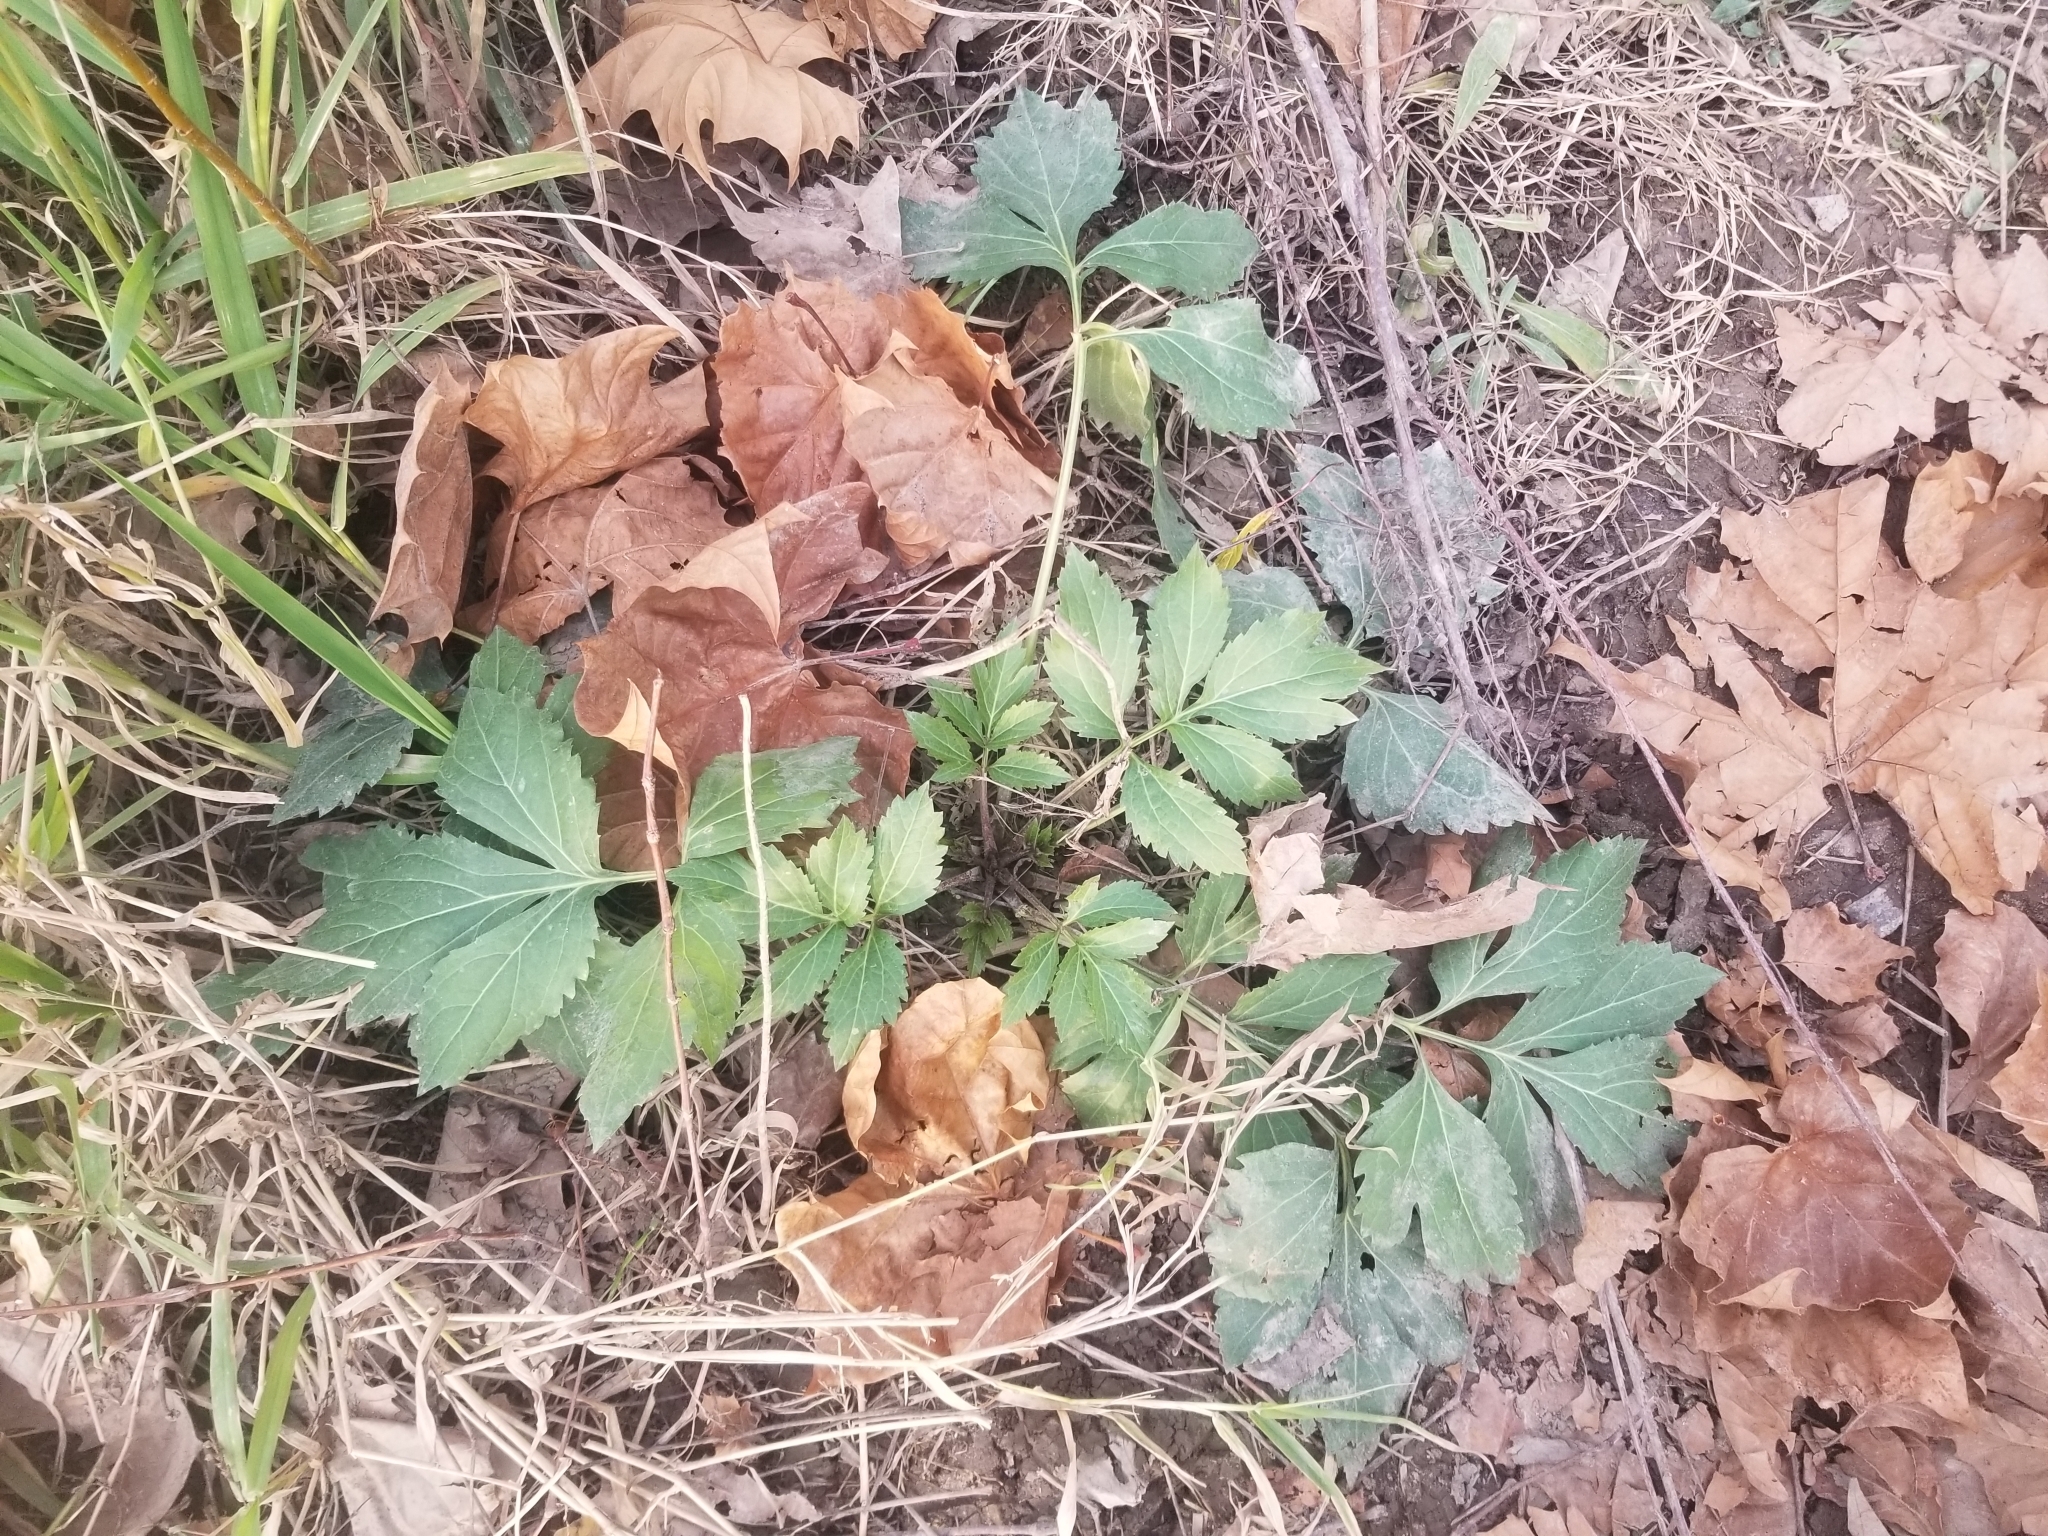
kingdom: Plantae
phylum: Tracheophyta
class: Magnoliopsida
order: Asterales
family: Asteraceae
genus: Rudbeckia
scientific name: Rudbeckia laciniata
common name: Coneflower
